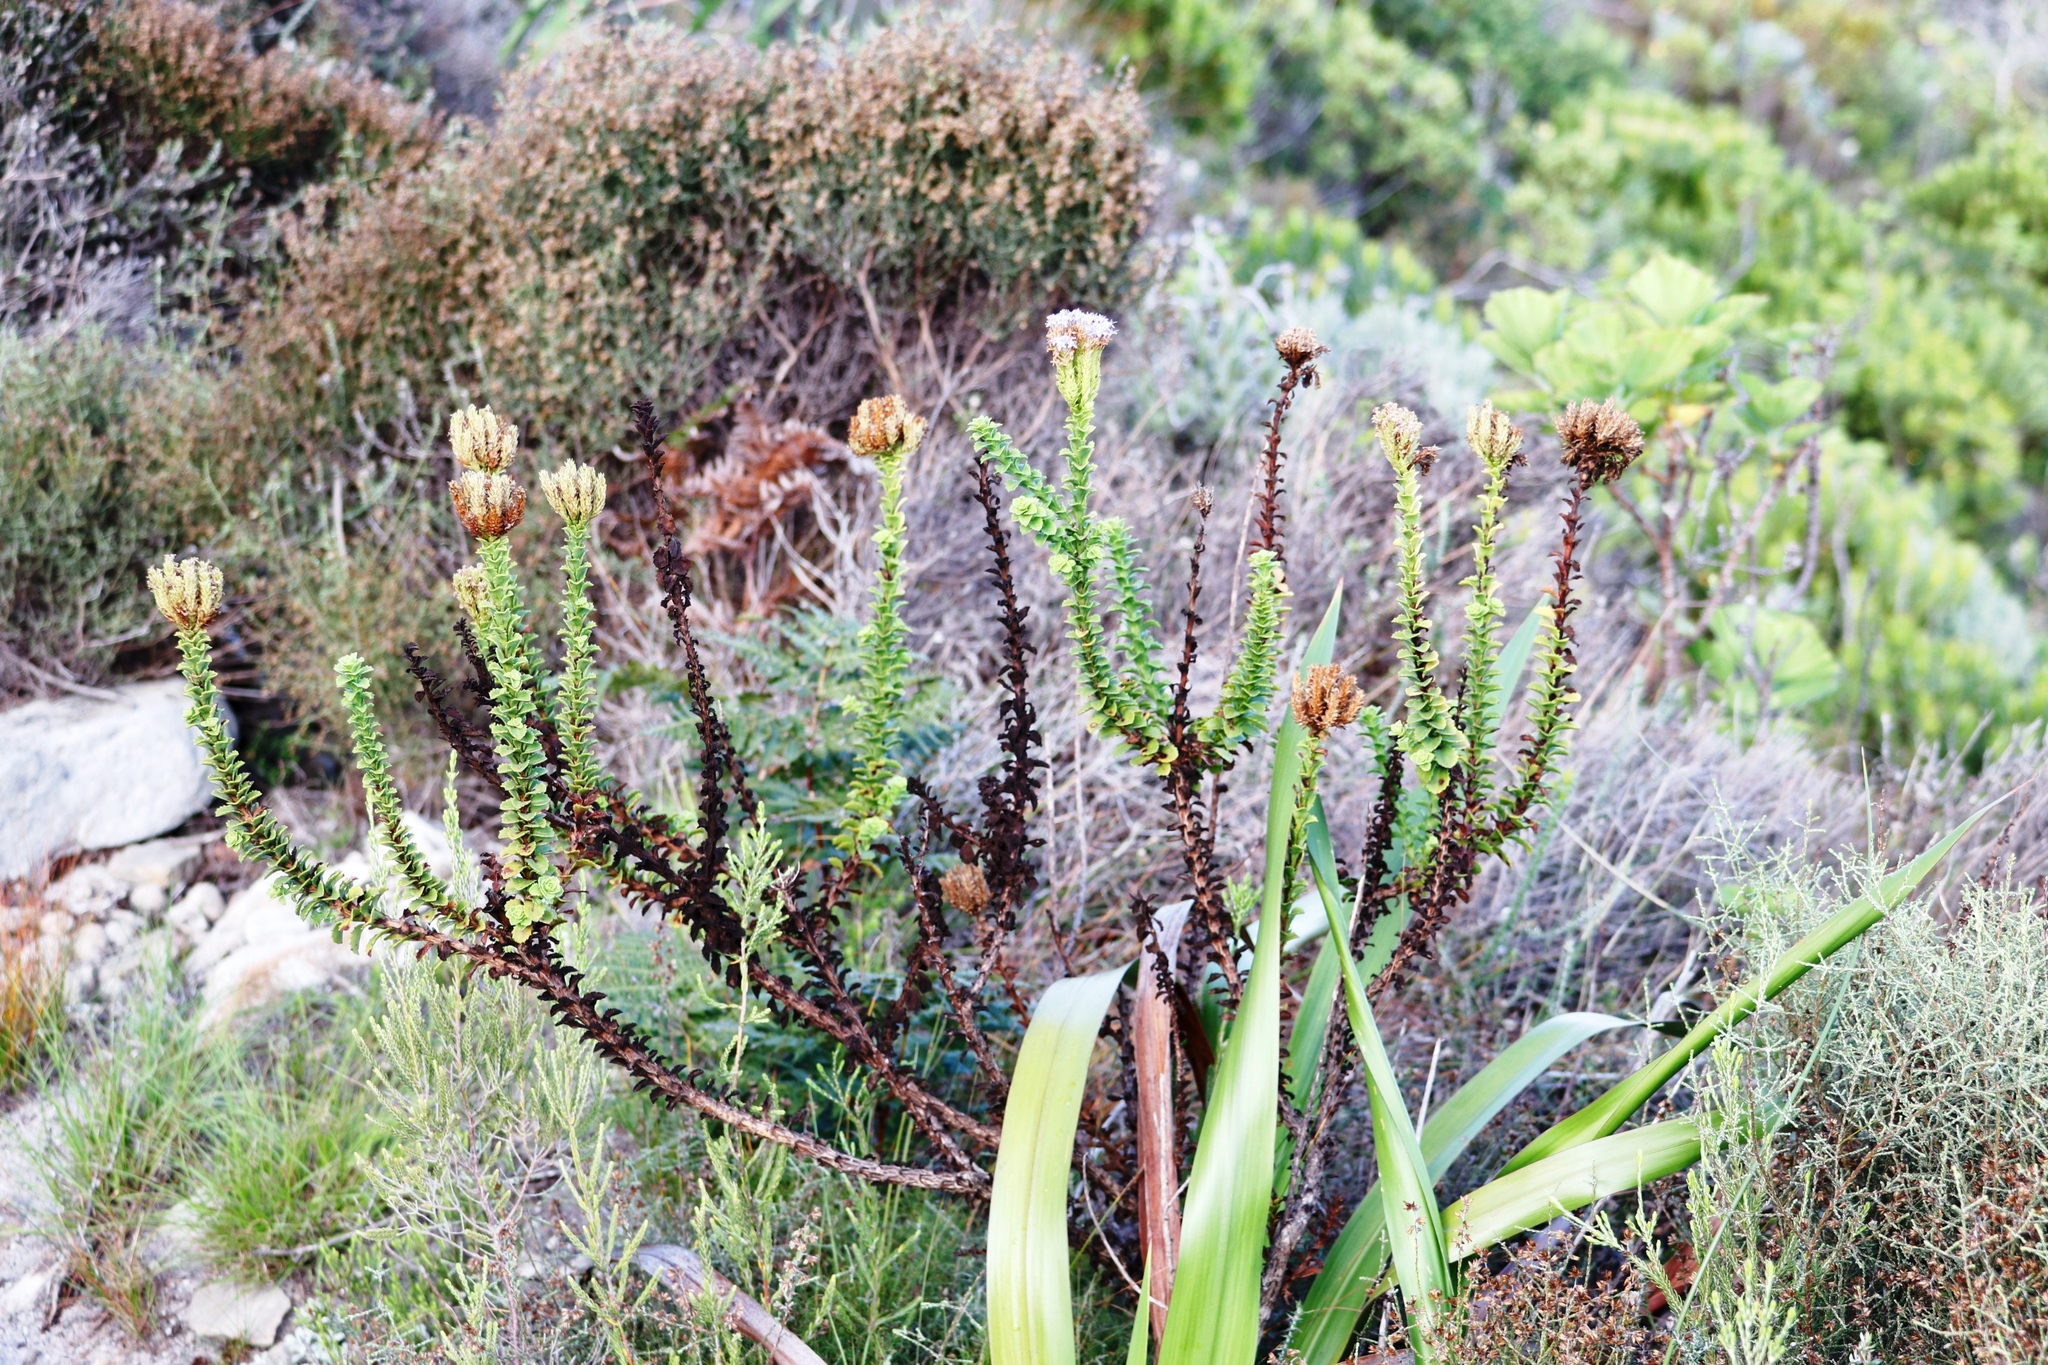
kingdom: Plantae
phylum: Tracheophyta
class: Magnoliopsida
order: Lamiales
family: Scrophulariaceae
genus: Pseudoselago
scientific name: Pseudoselago serrata
